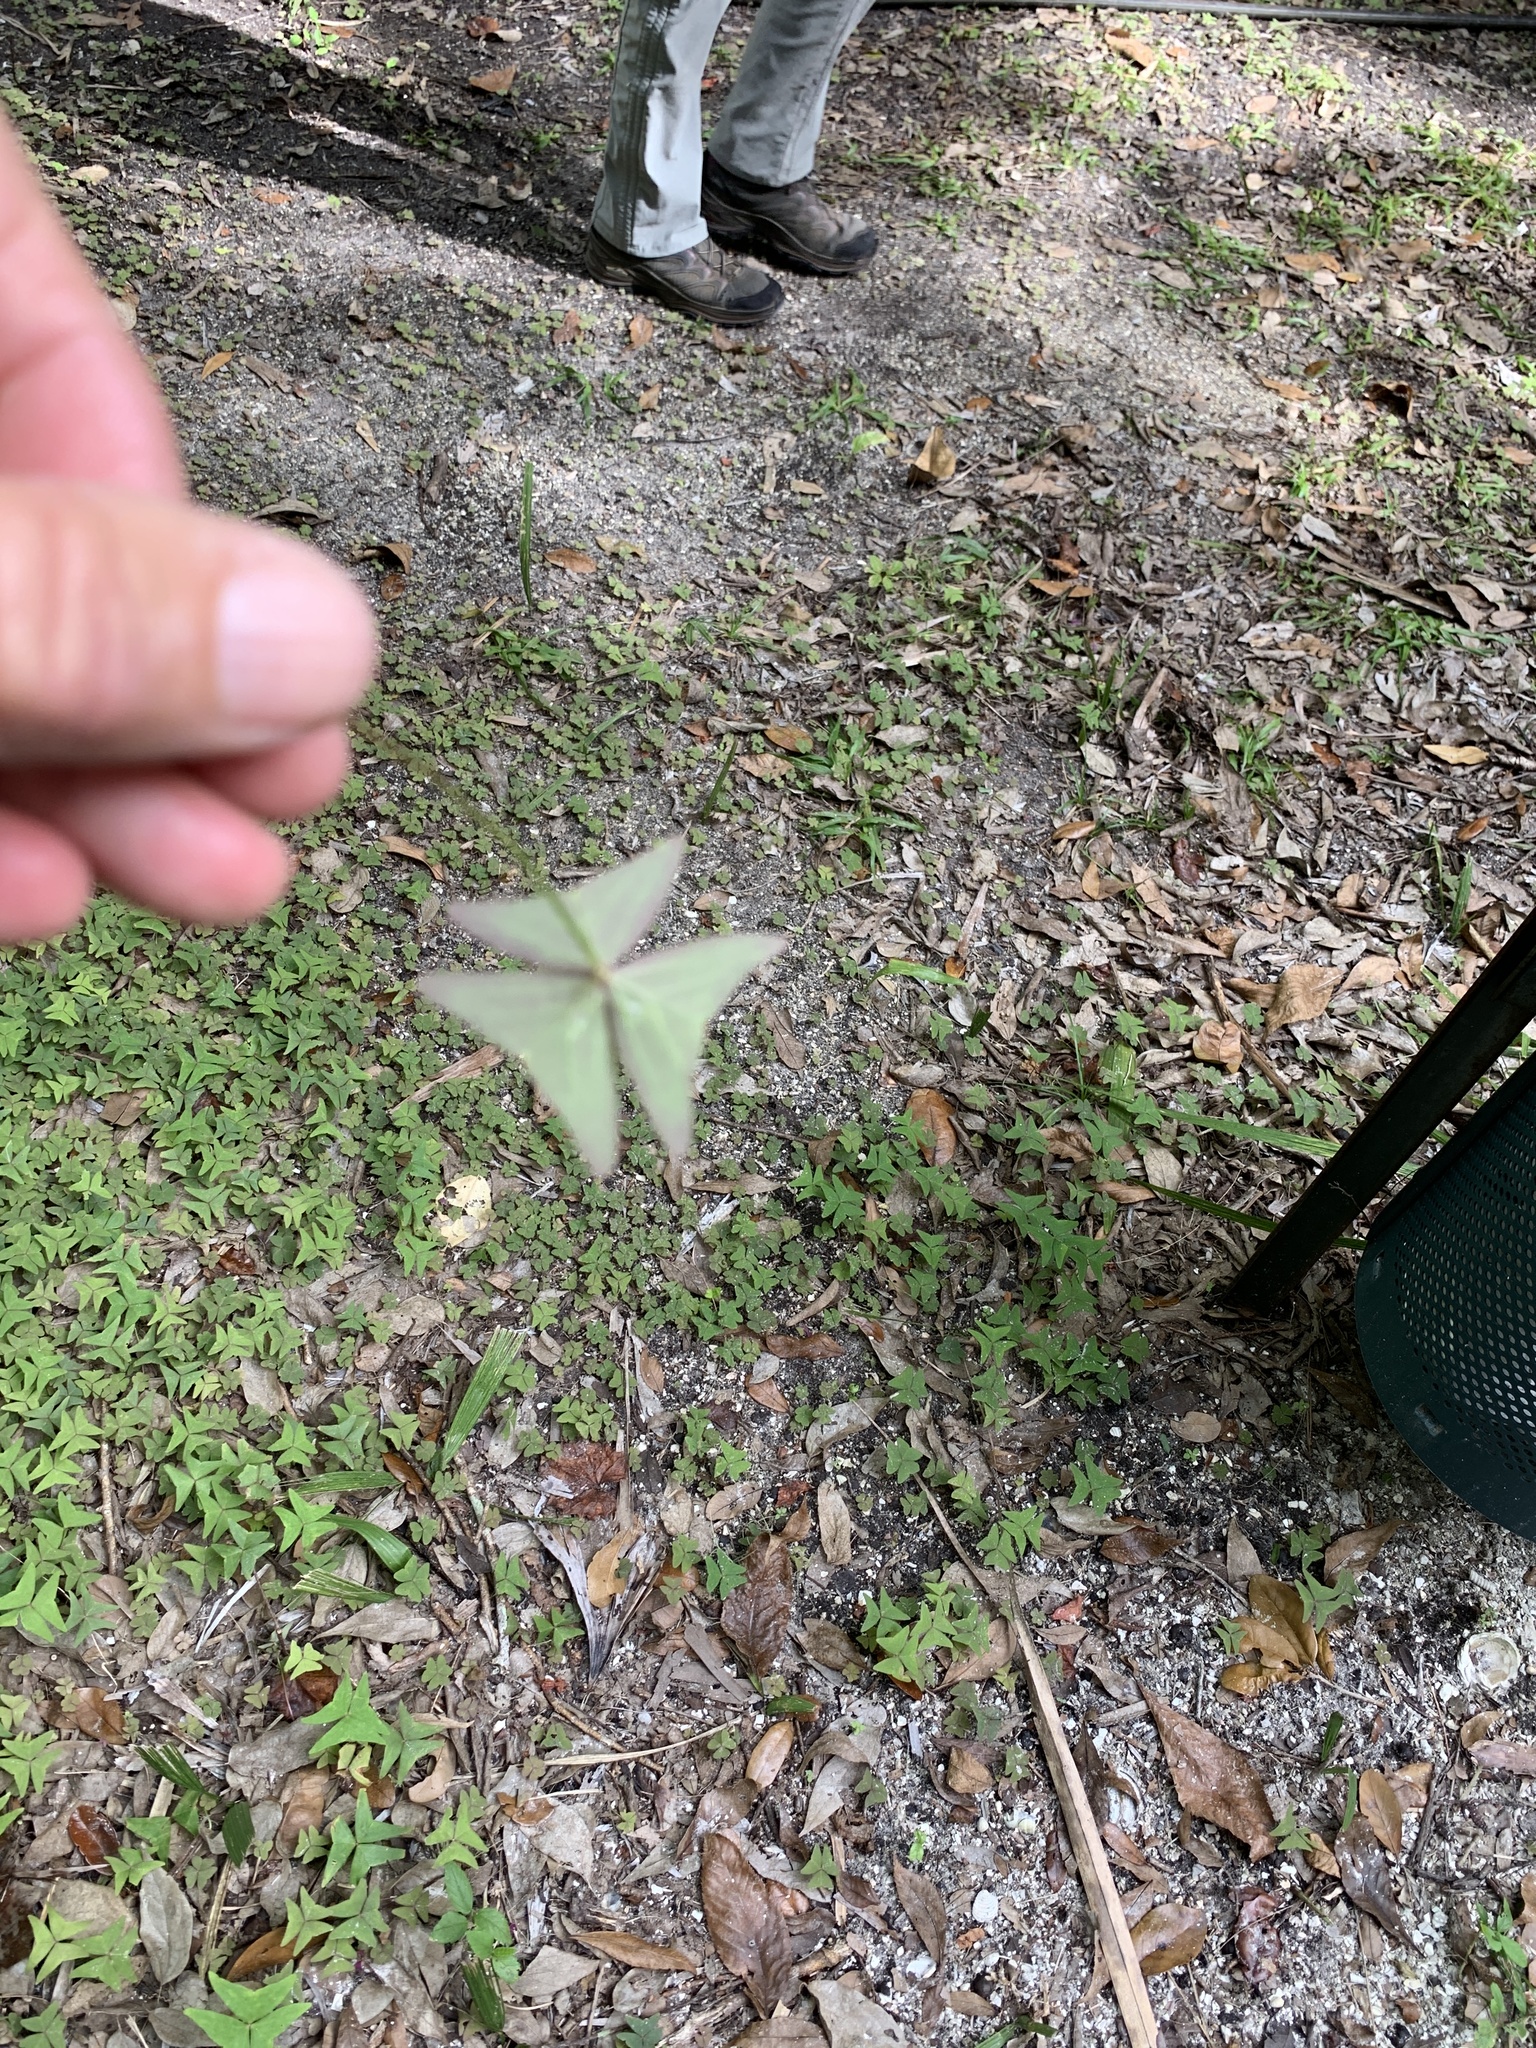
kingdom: Plantae
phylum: Tracheophyta
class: Magnoliopsida
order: Oxalidales
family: Oxalidaceae
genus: Oxalis
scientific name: Oxalis intermedia
